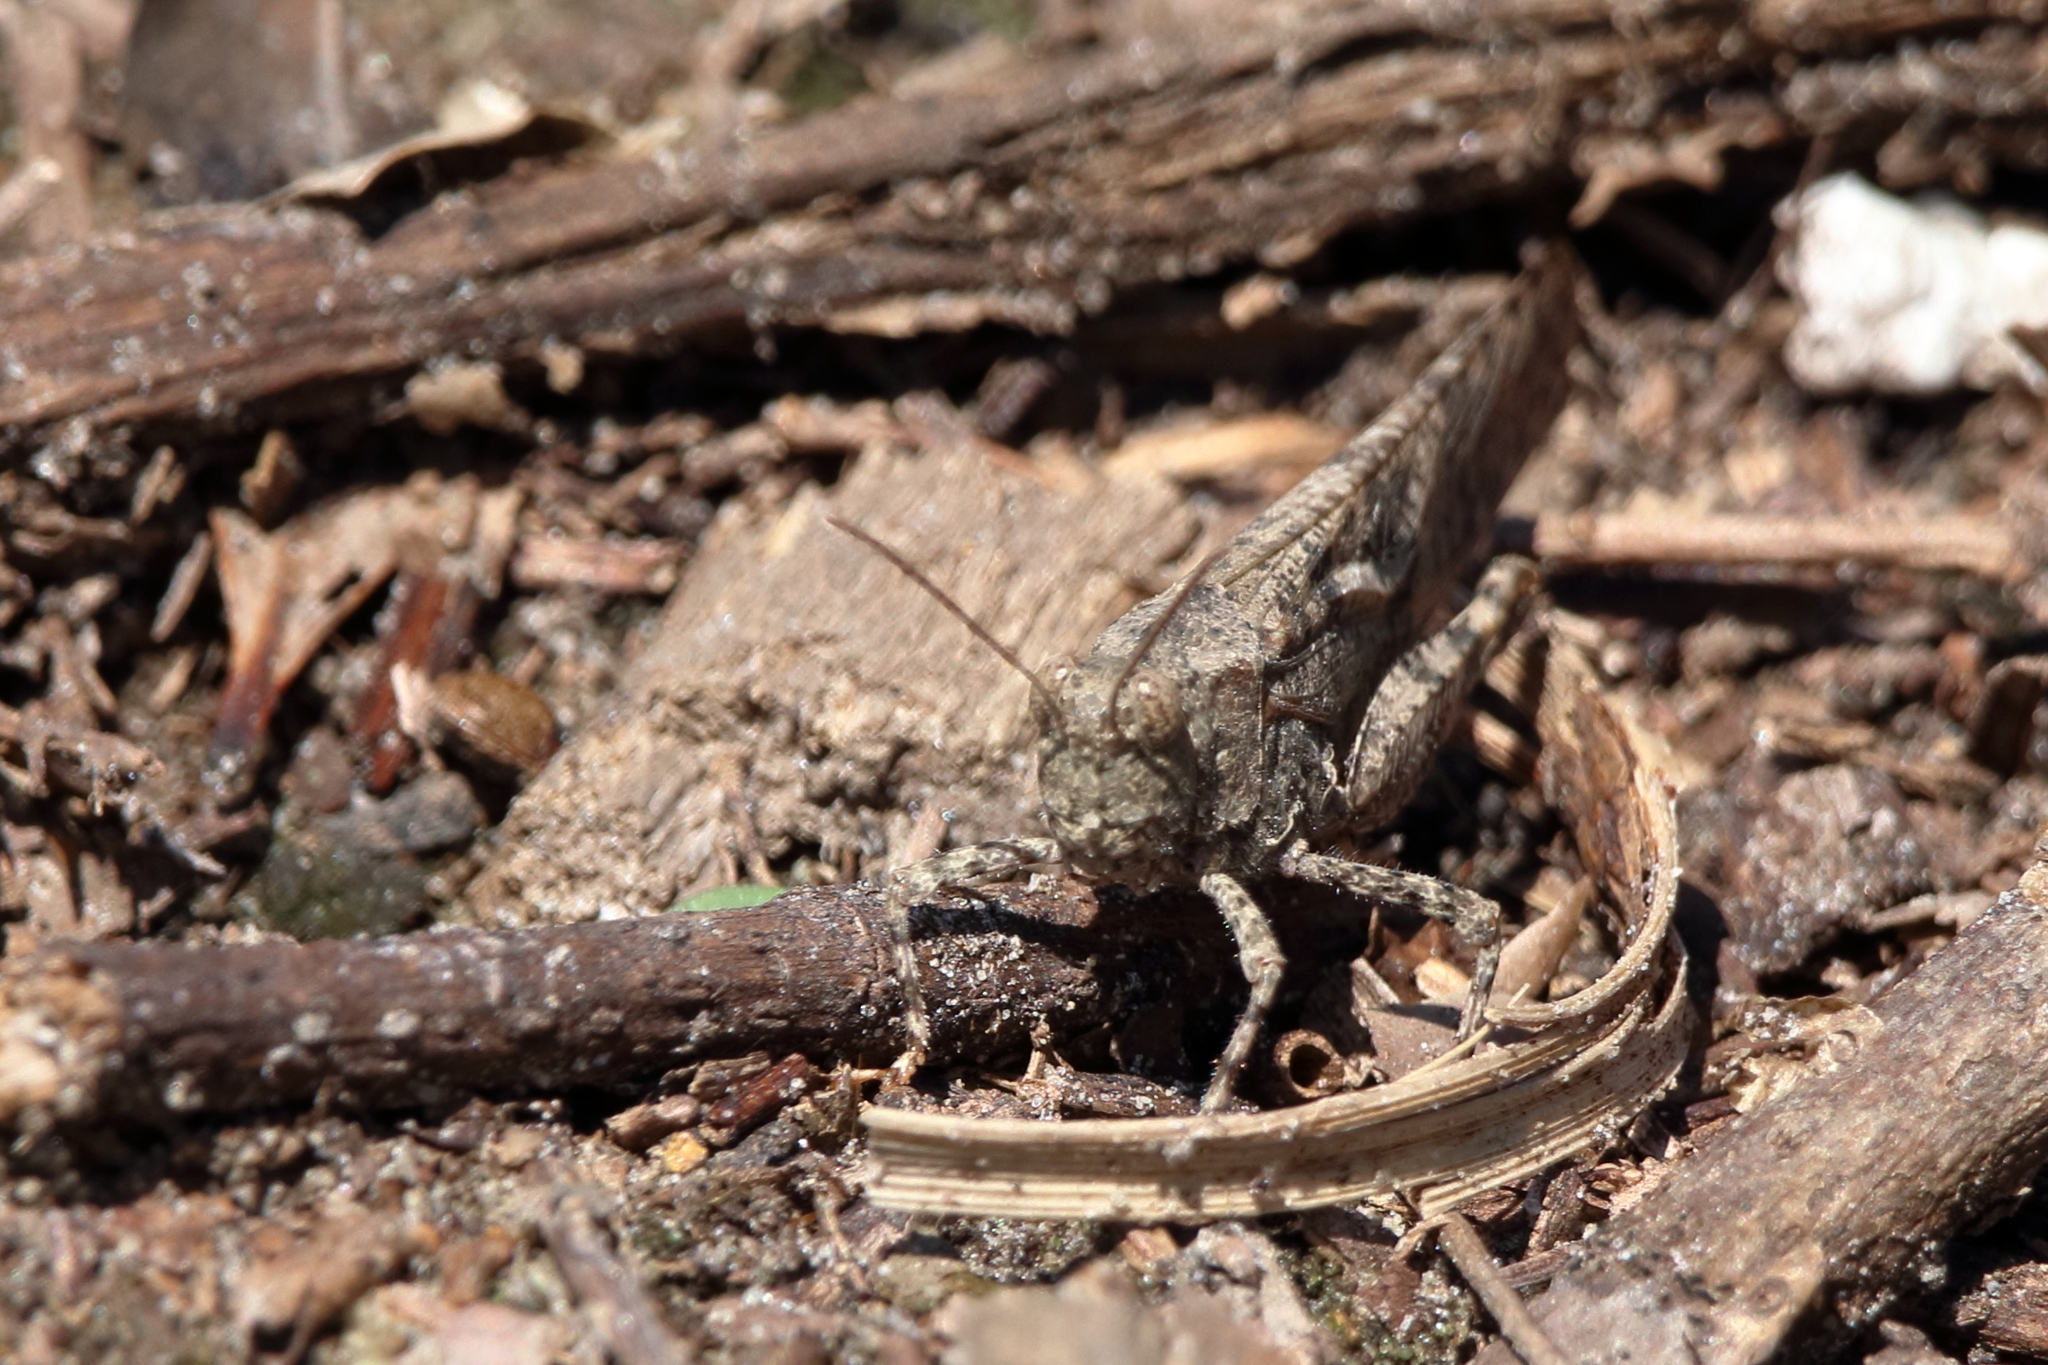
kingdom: Animalia
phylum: Arthropoda
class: Insecta
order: Orthoptera
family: Acrididae
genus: Dissosteira
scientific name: Dissosteira carolina
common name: Carolina grasshopper
